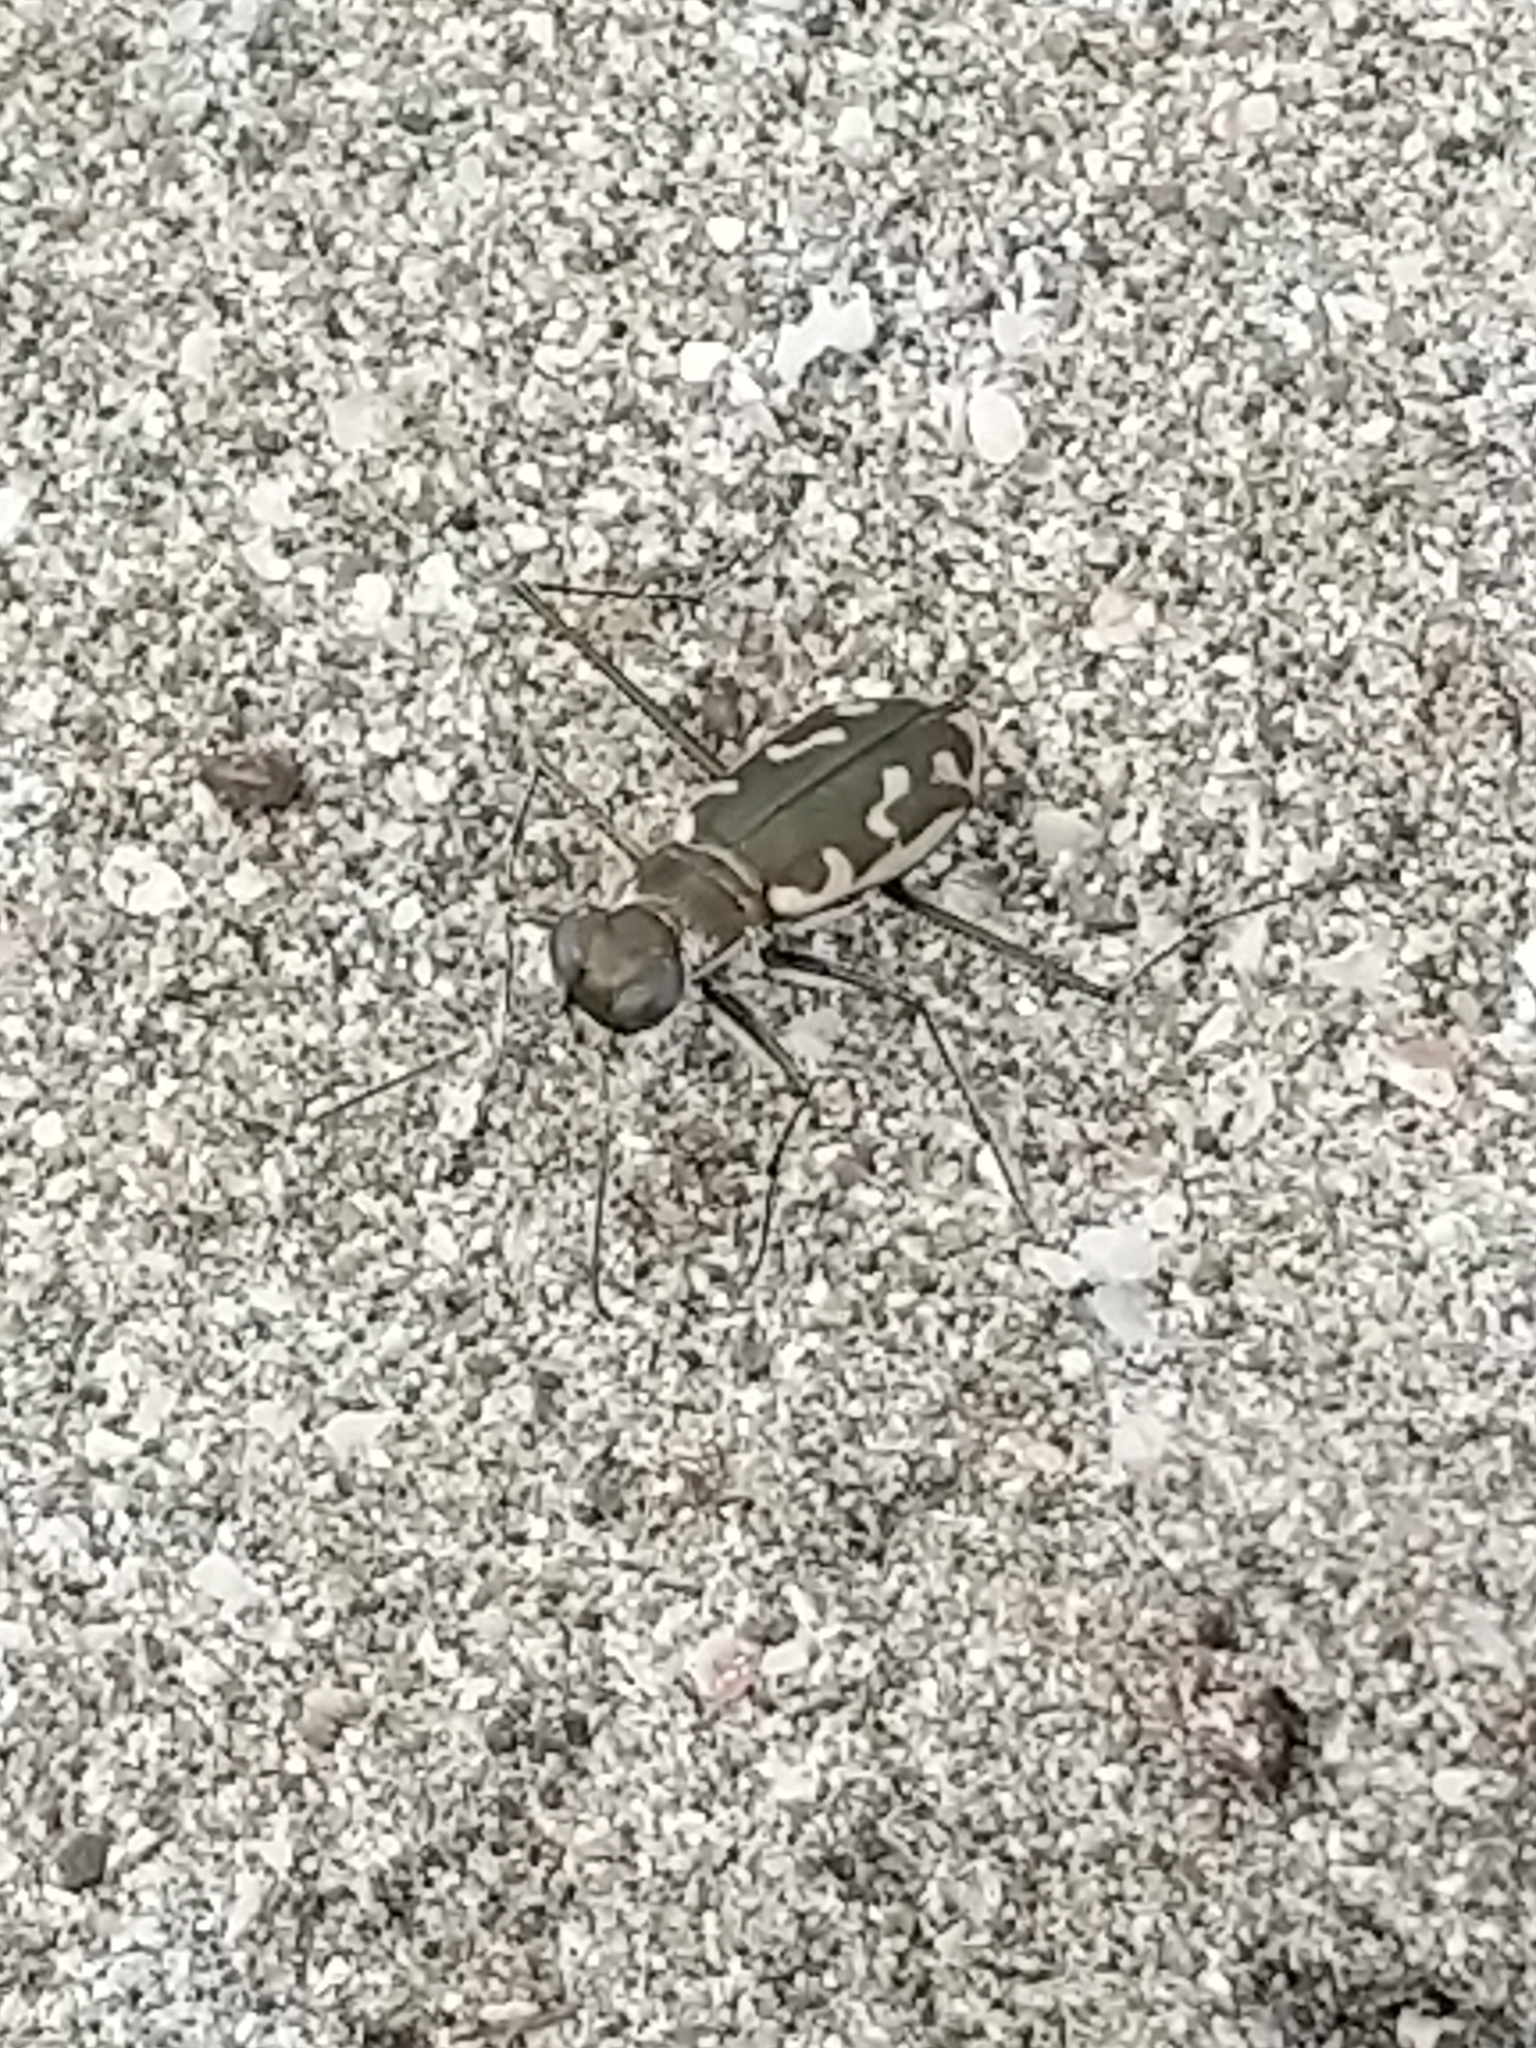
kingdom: Animalia
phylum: Arthropoda
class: Insecta
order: Coleoptera
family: Carabidae
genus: Opilidia
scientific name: Opilidia macrocnema
